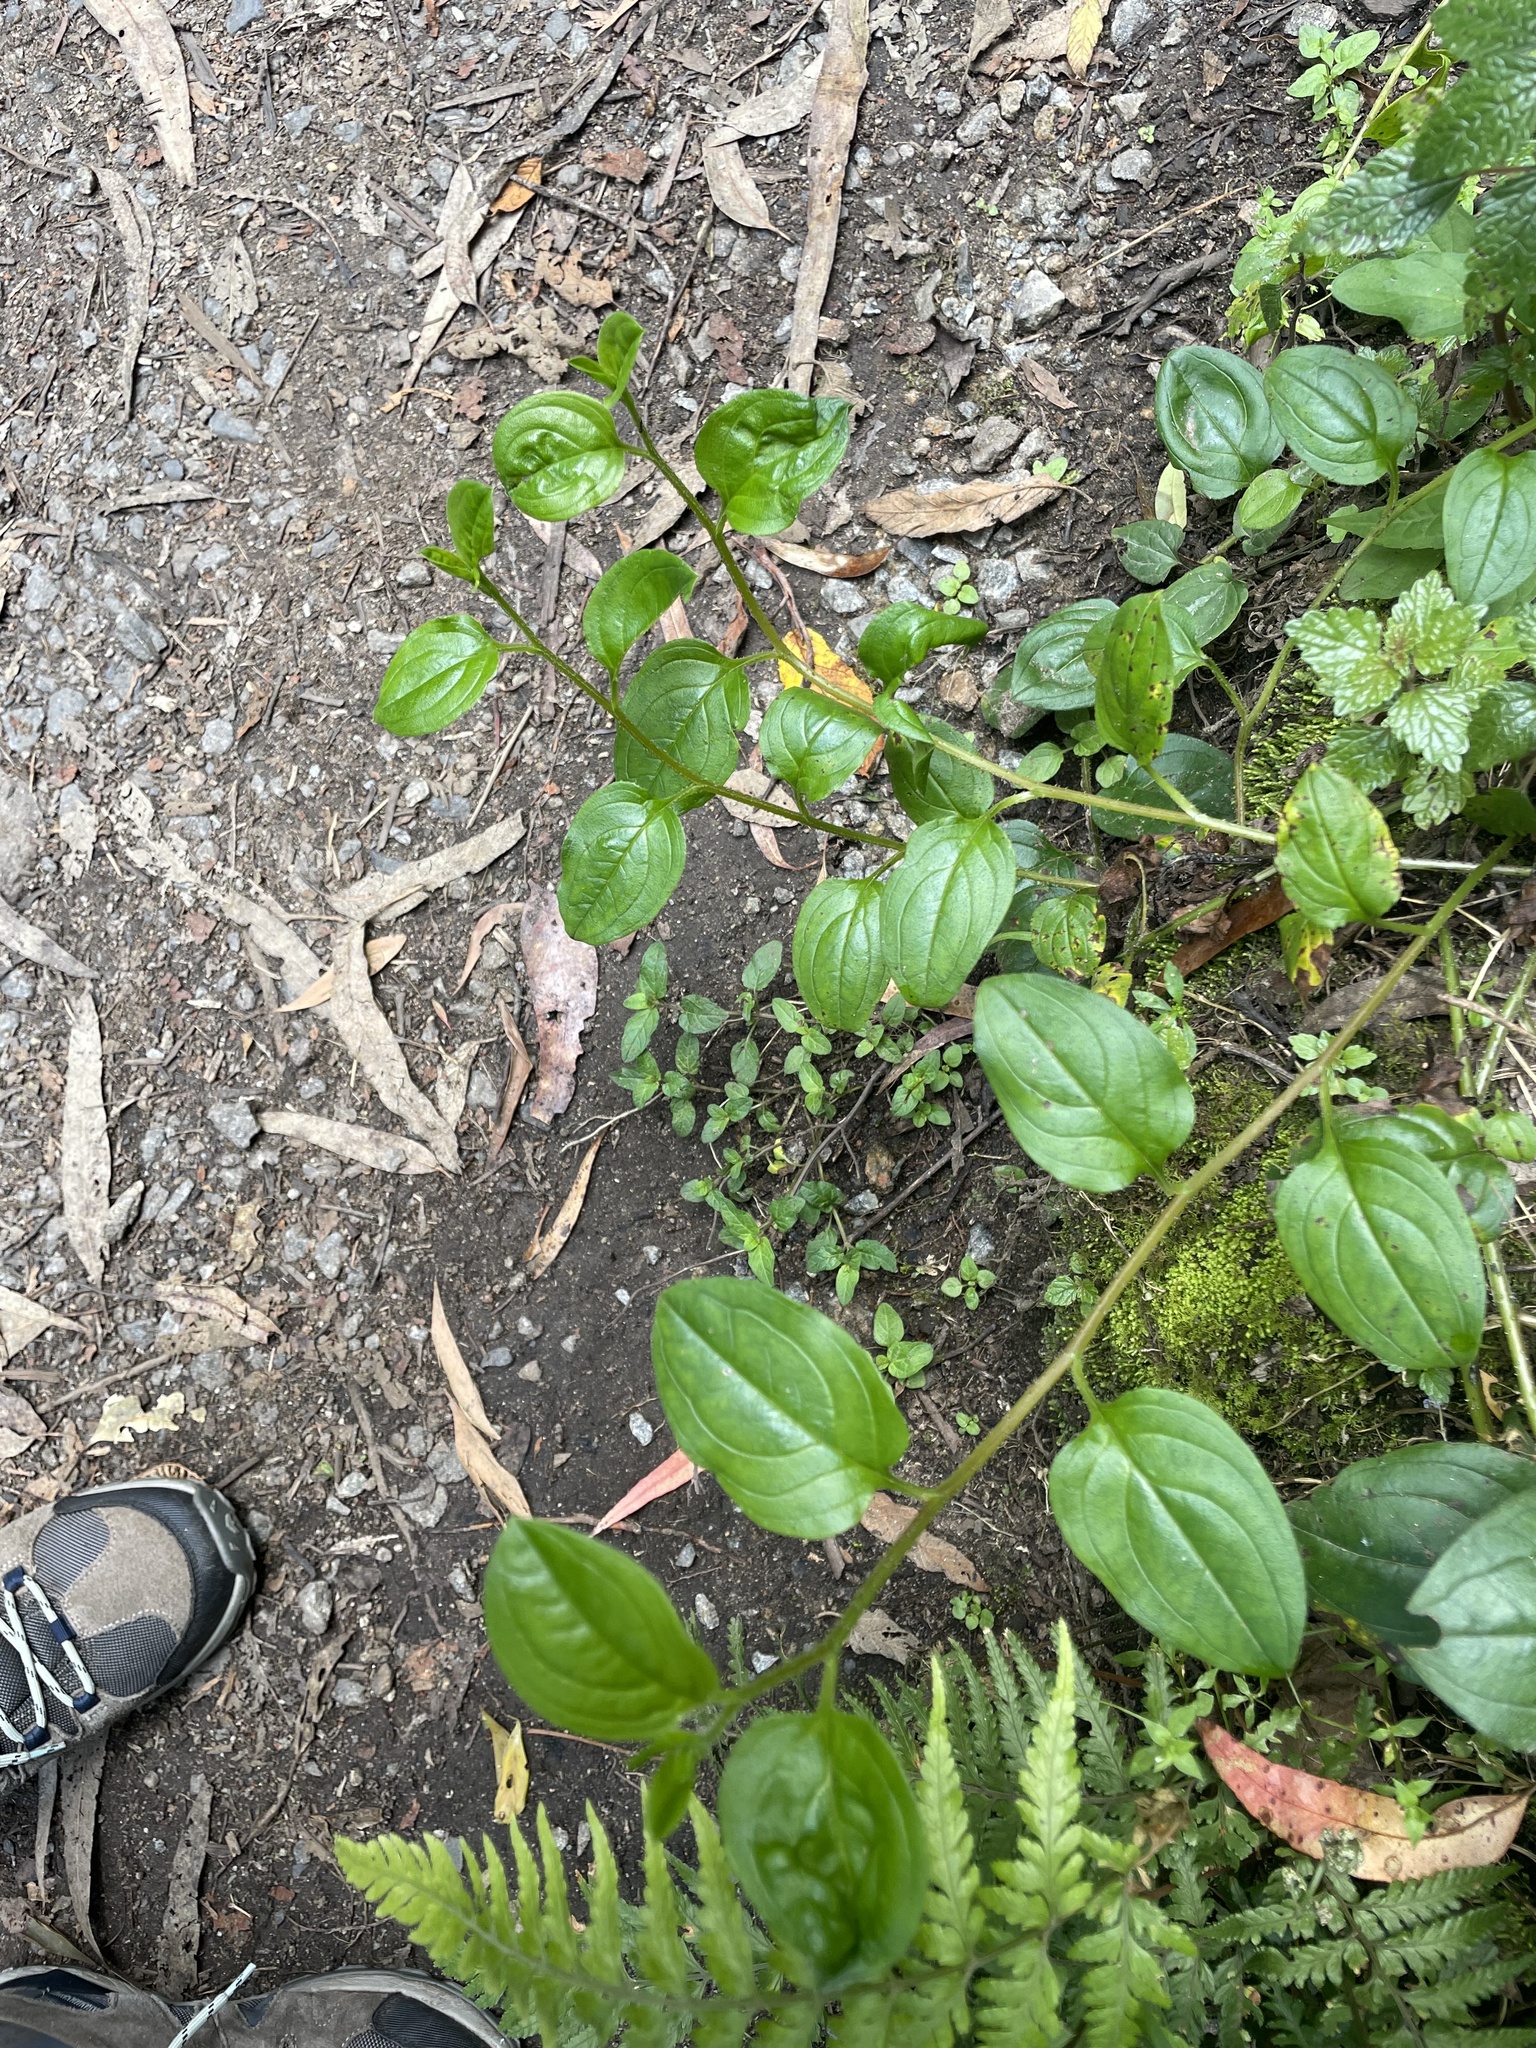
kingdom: Plantae
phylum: Tracheophyta
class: Magnoliopsida
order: Boraginales
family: Boraginaceae
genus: Hackelia
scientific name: Hackelia latifolia
